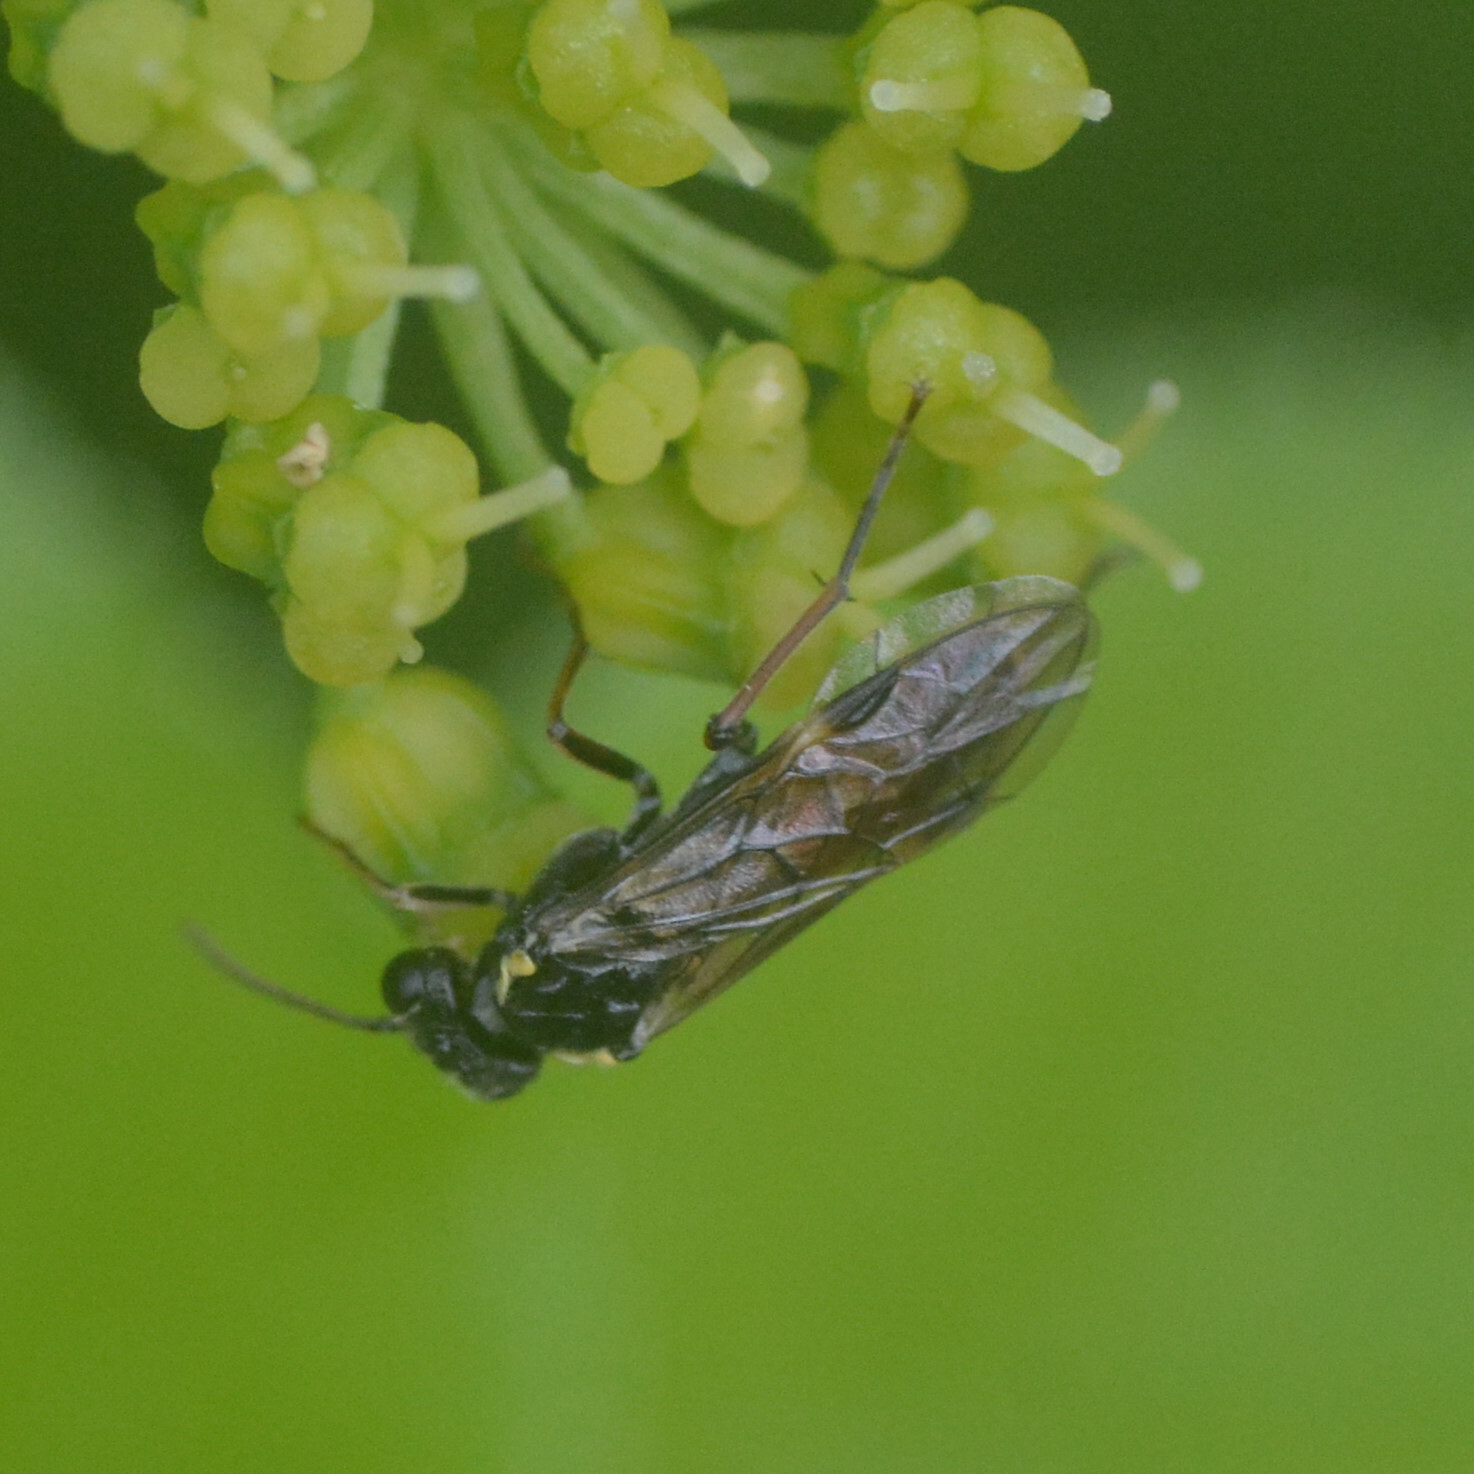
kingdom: Animalia
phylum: Arthropoda
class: Insecta
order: Hymenoptera
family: Tenthredinidae
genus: Aglaostigma
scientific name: Aglaostigma aucupariae
